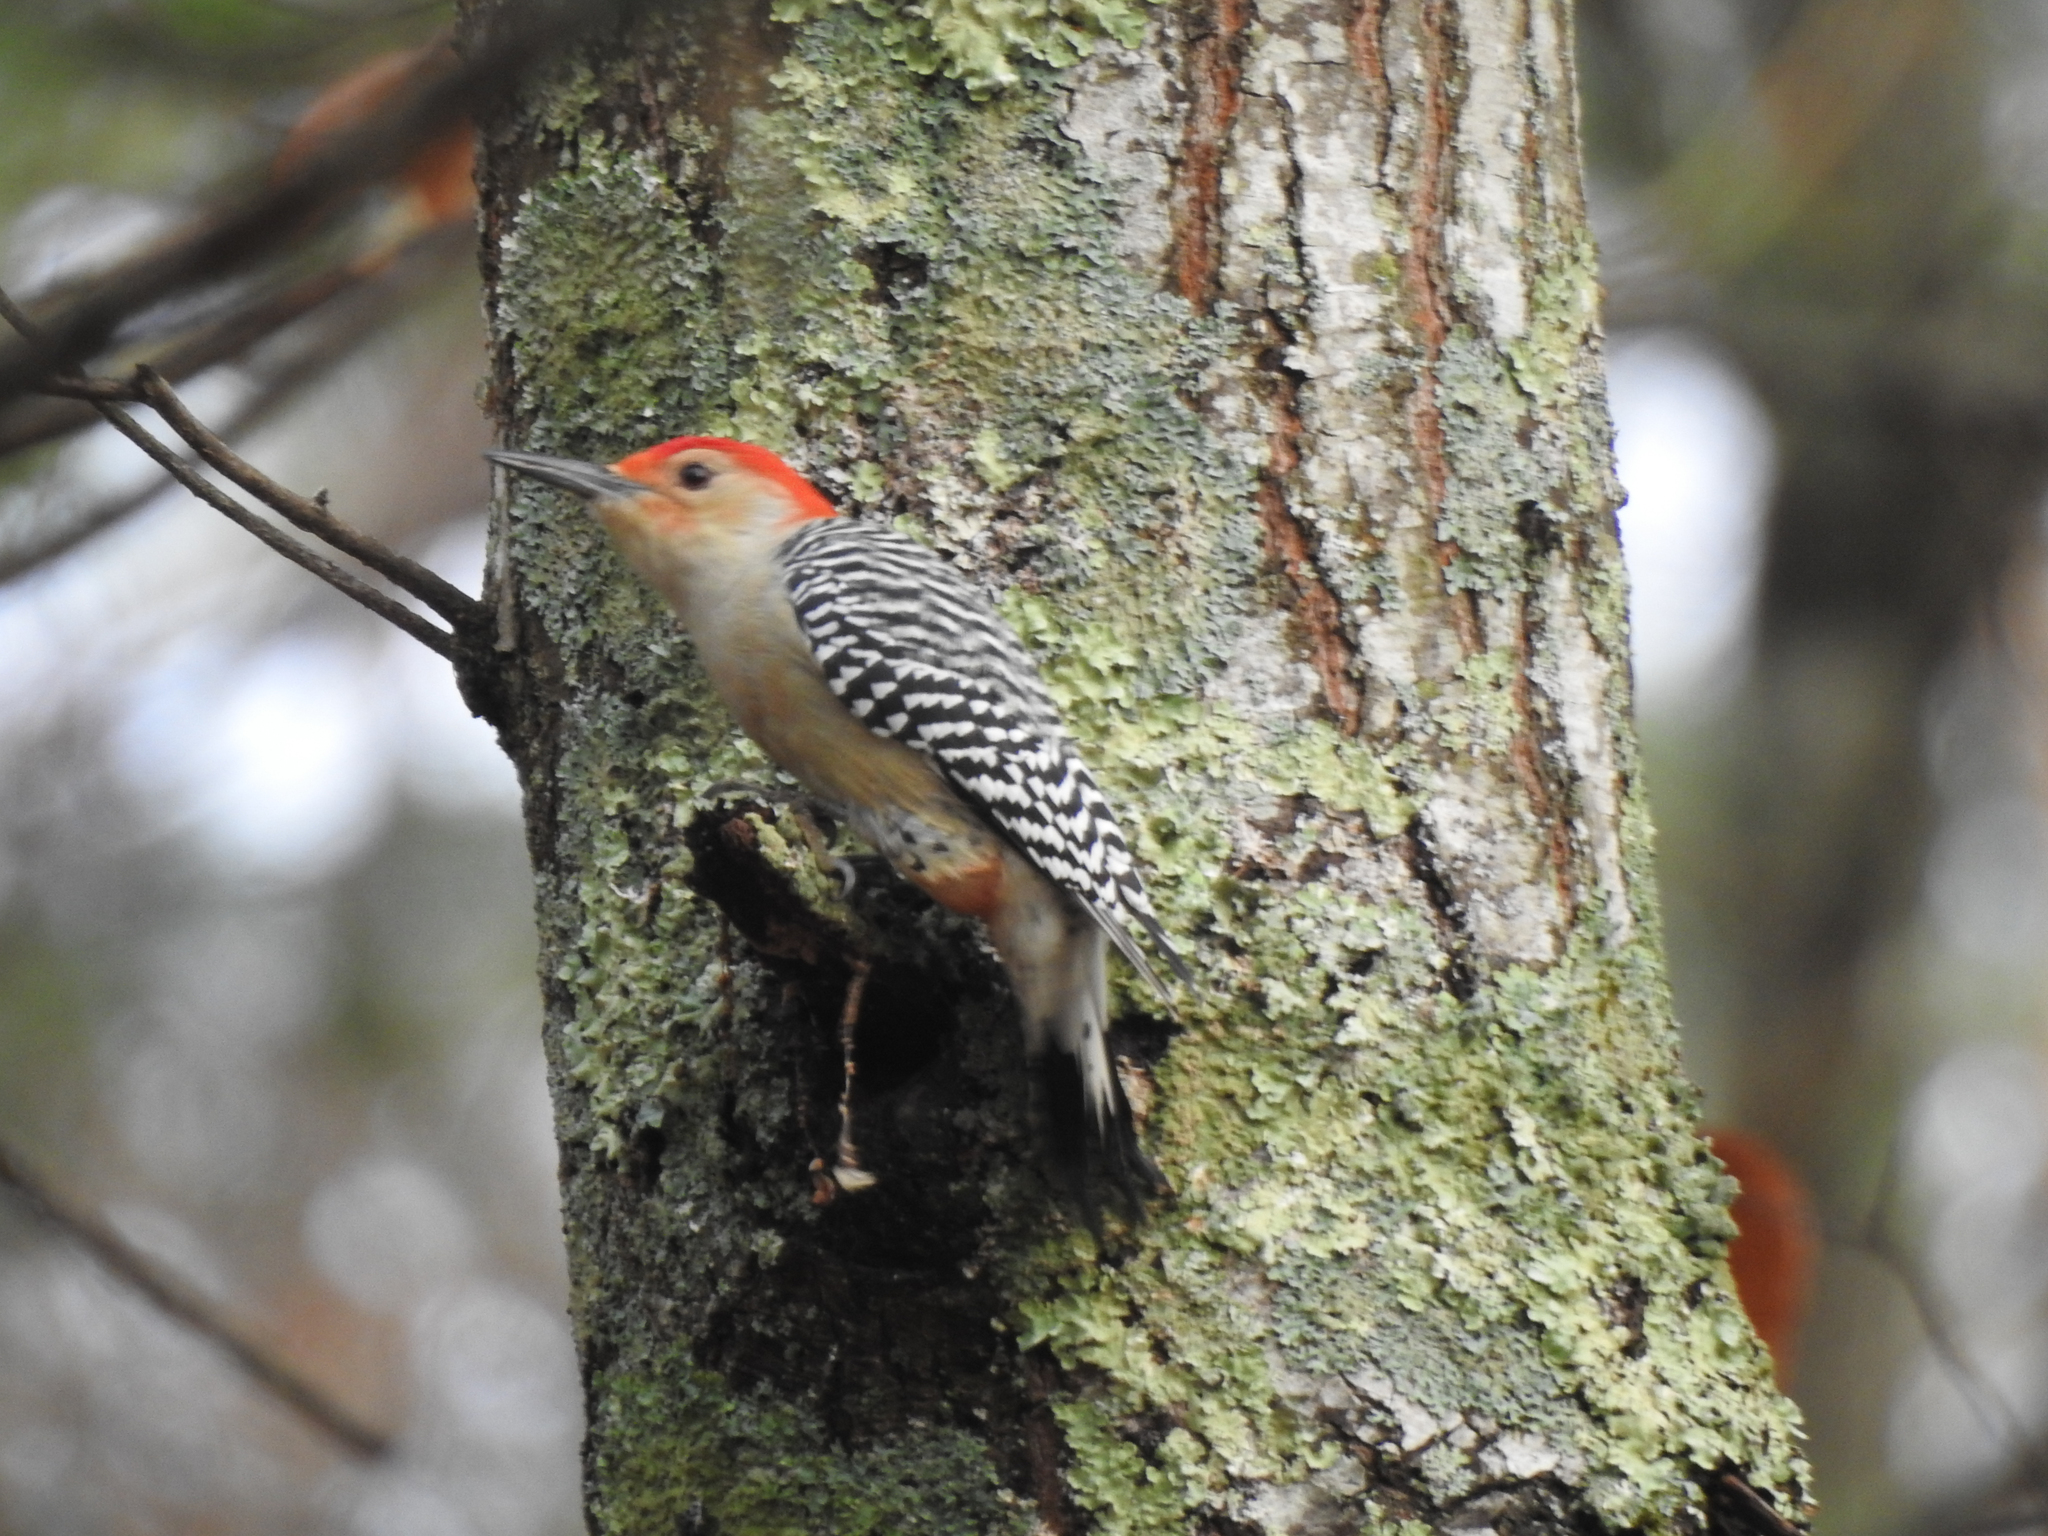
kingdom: Animalia
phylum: Chordata
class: Aves
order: Piciformes
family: Picidae
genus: Melanerpes
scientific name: Melanerpes carolinus
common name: Red-bellied woodpecker
